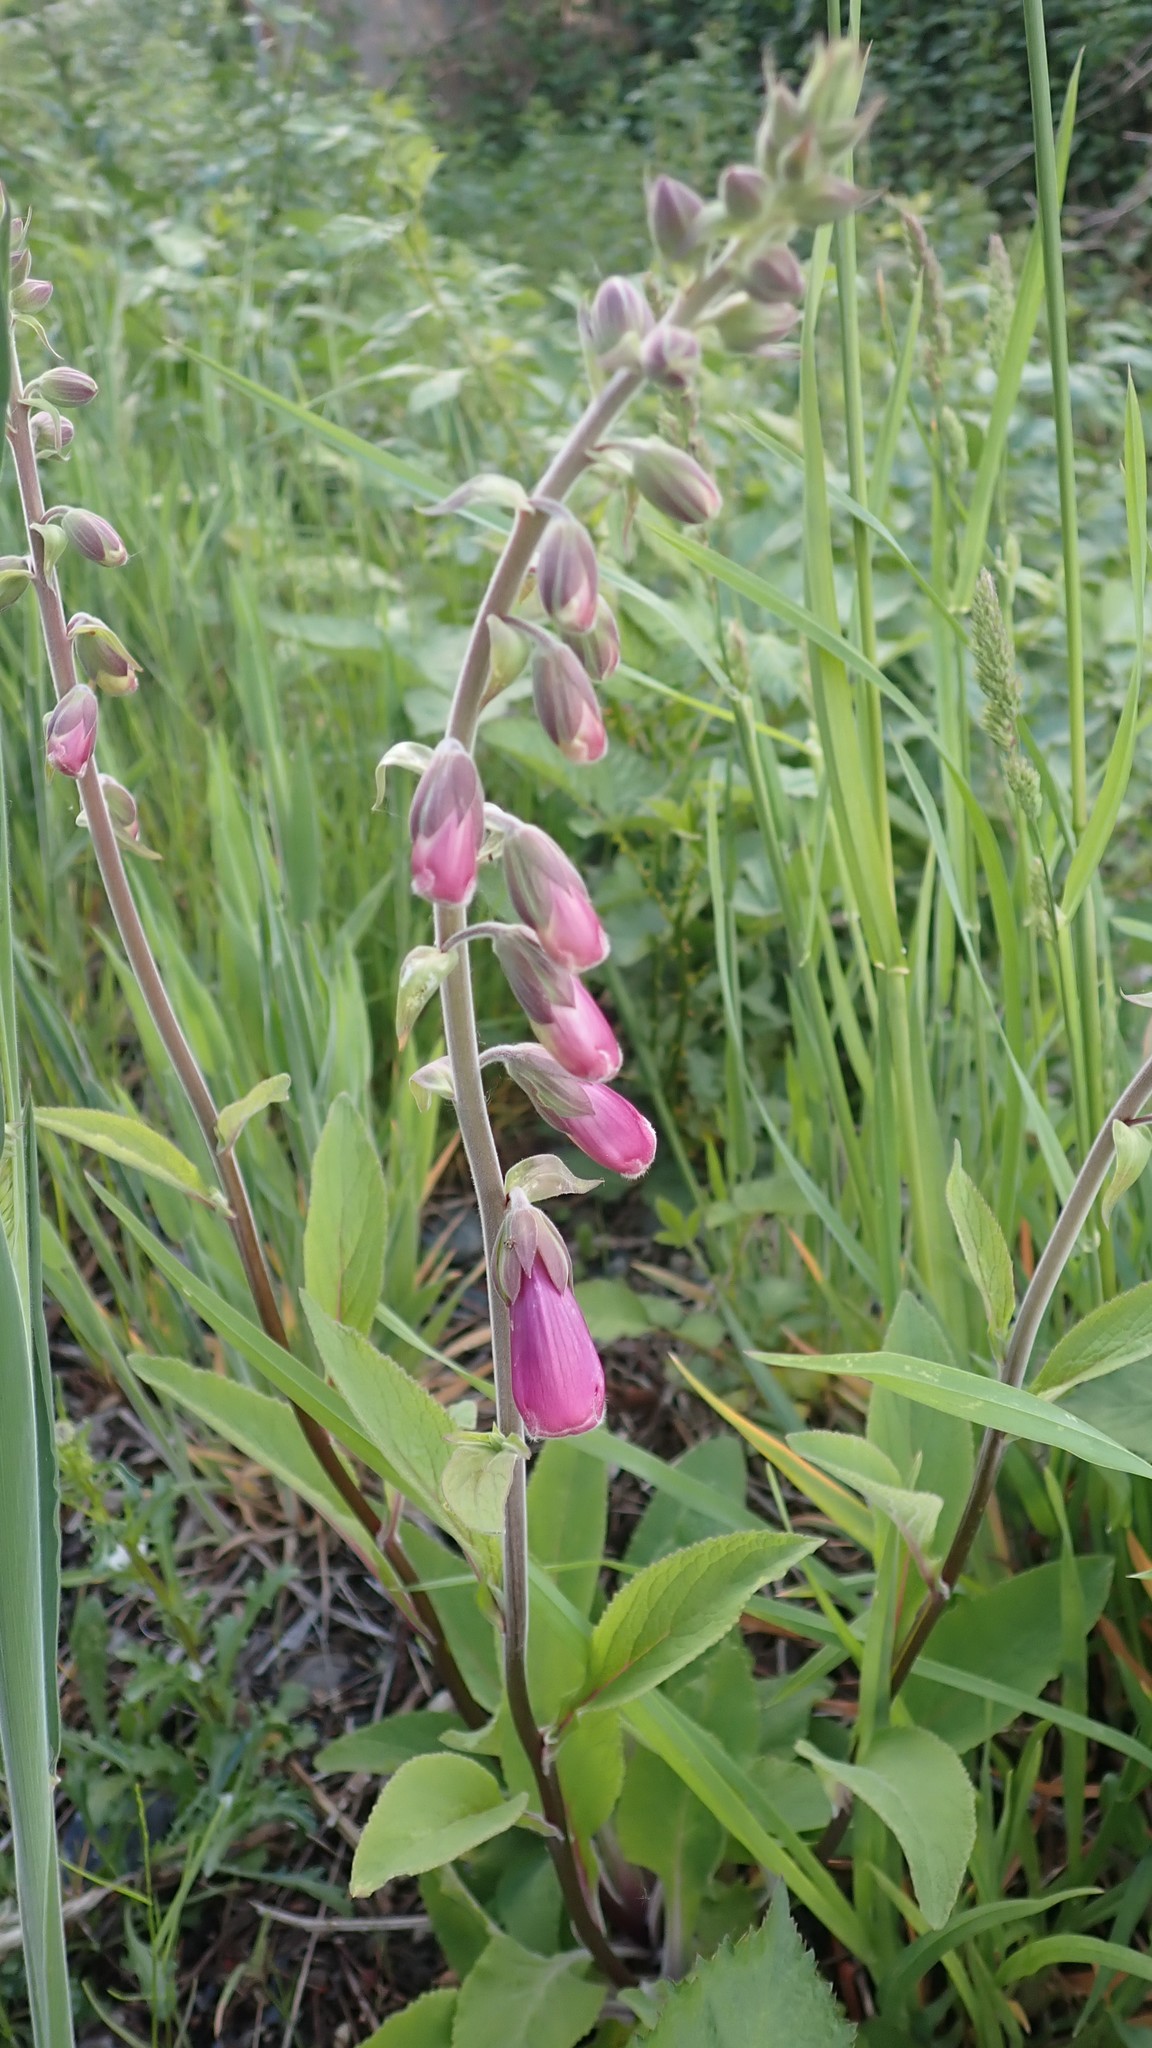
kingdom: Plantae
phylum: Tracheophyta
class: Magnoliopsida
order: Lamiales
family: Plantaginaceae
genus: Digitalis
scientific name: Digitalis purpurea
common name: Foxglove
